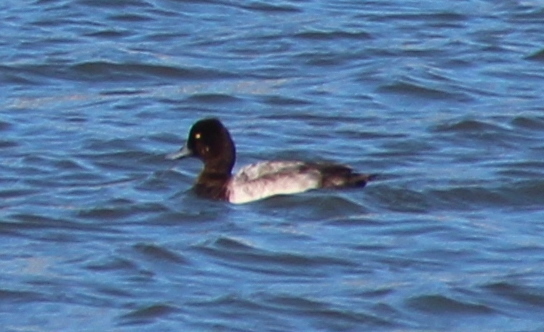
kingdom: Animalia
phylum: Chordata
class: Aves
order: Anseriformes
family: Anatidae
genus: Aythya
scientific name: Aythya affinis
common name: Lesser scaup
